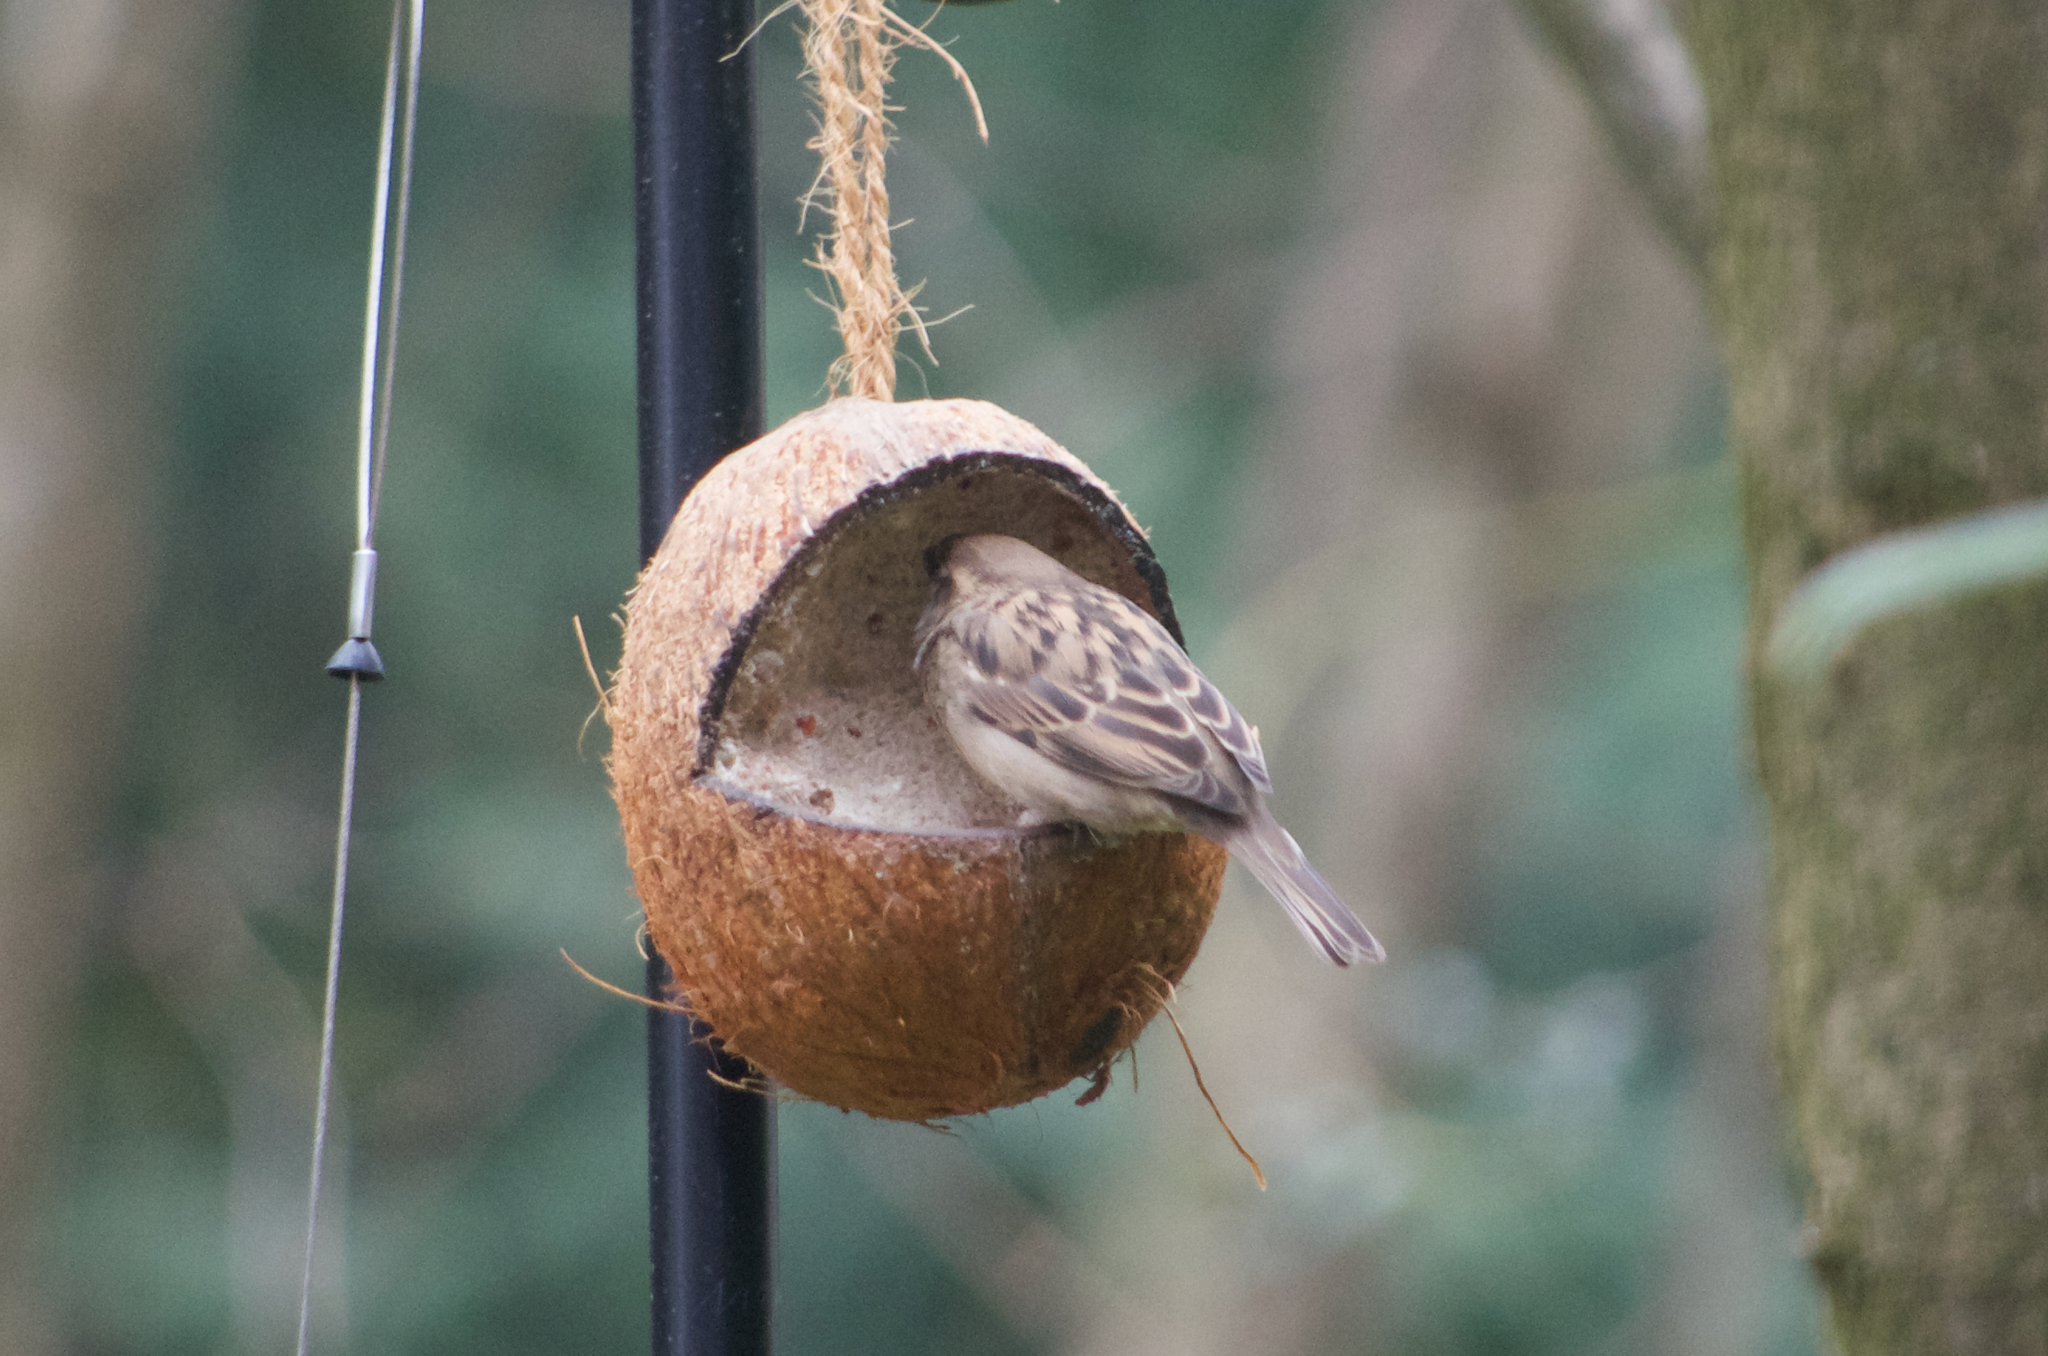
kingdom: Animalia
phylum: Chordata
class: Aves
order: Passeriformes
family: Passeridae
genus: Passer
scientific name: Passer domesticus
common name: House sparrow
